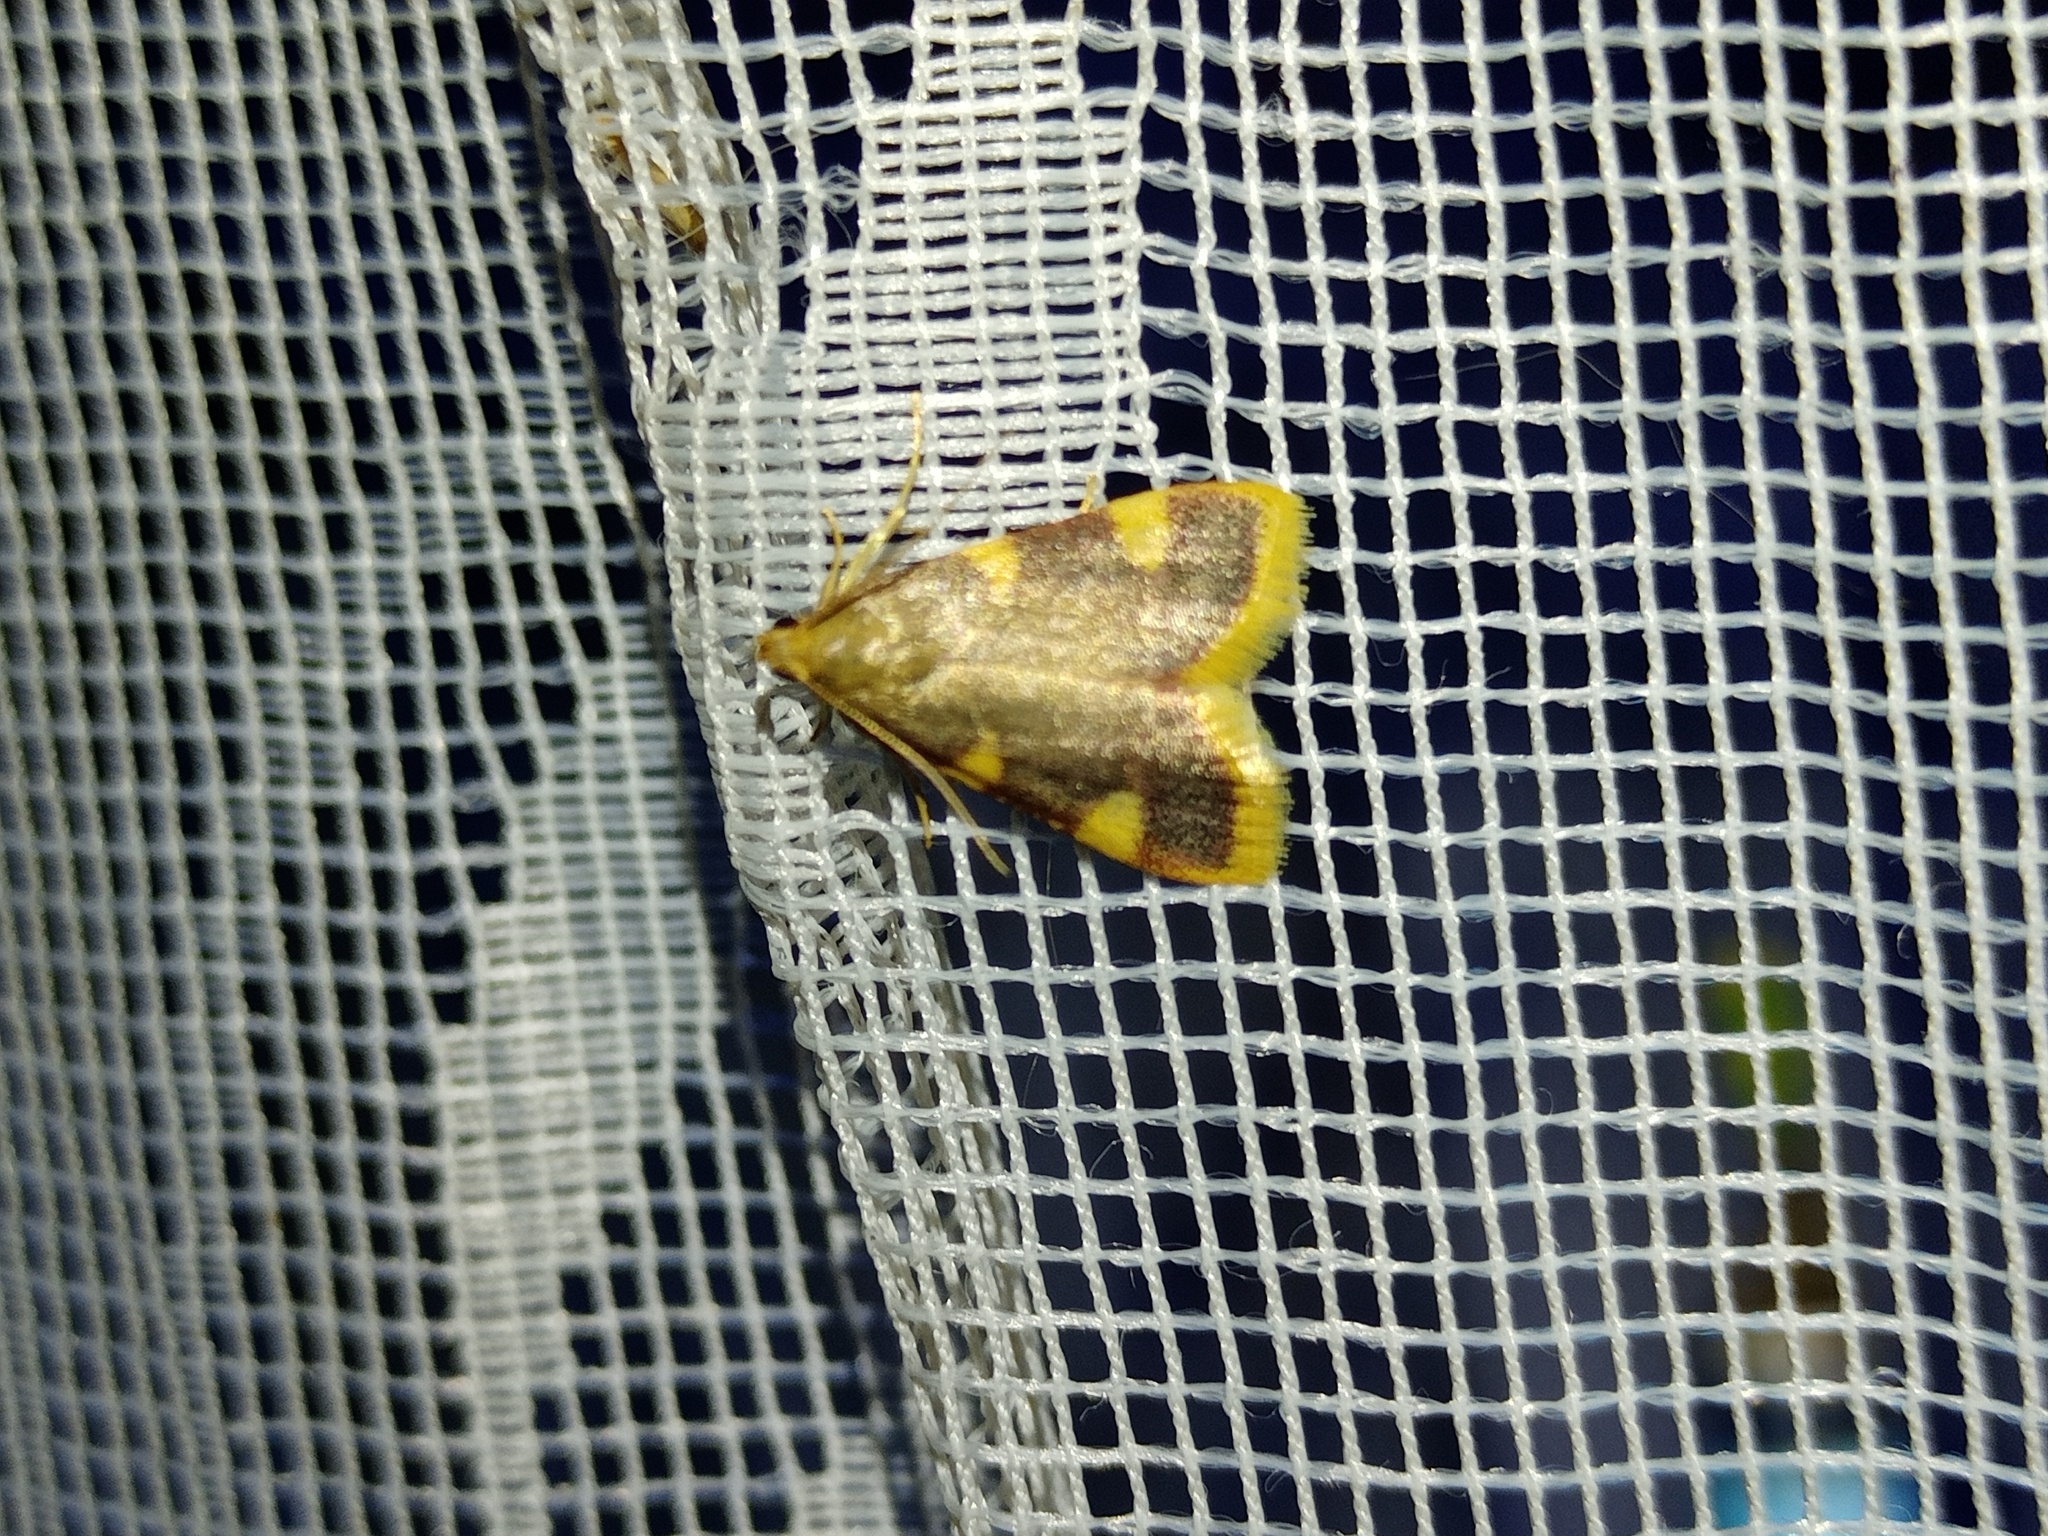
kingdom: Animalia
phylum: Arthropoda
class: Insecta
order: Lepidoptera
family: Pyralidae
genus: Hypsopygia
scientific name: Hypsopygia costalis
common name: Gold triangle
